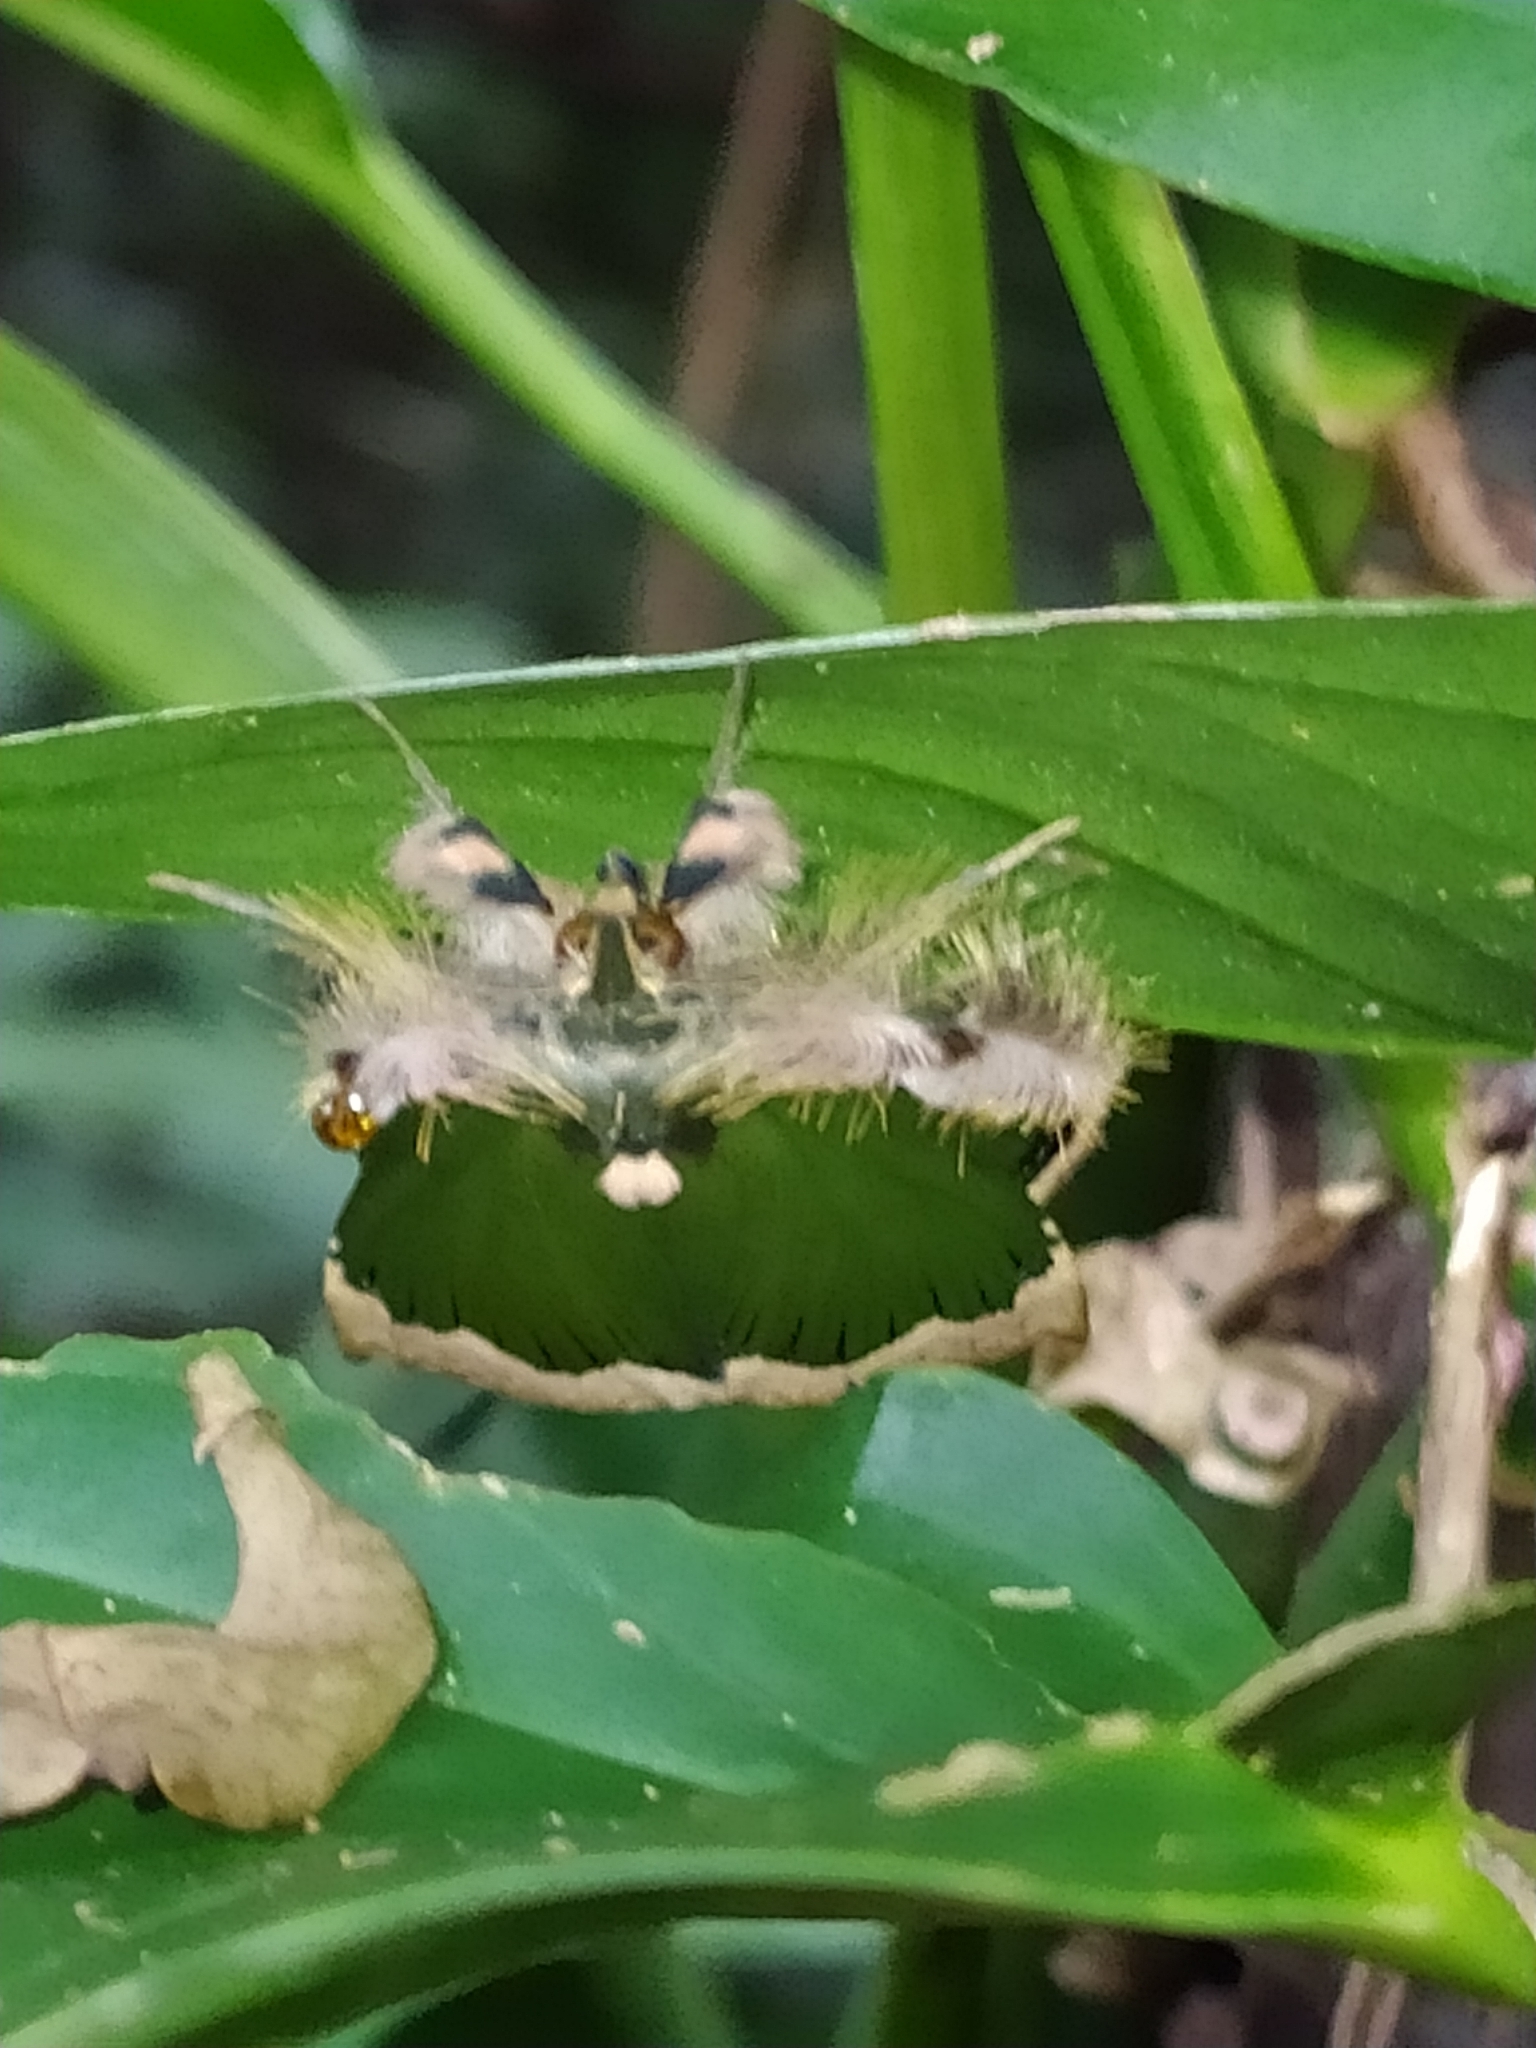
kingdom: Animalia
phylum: Arthropoda
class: Insecta
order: Lepidoptera
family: Erebidae
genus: Ceroctena
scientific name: Ceroctena amynta
